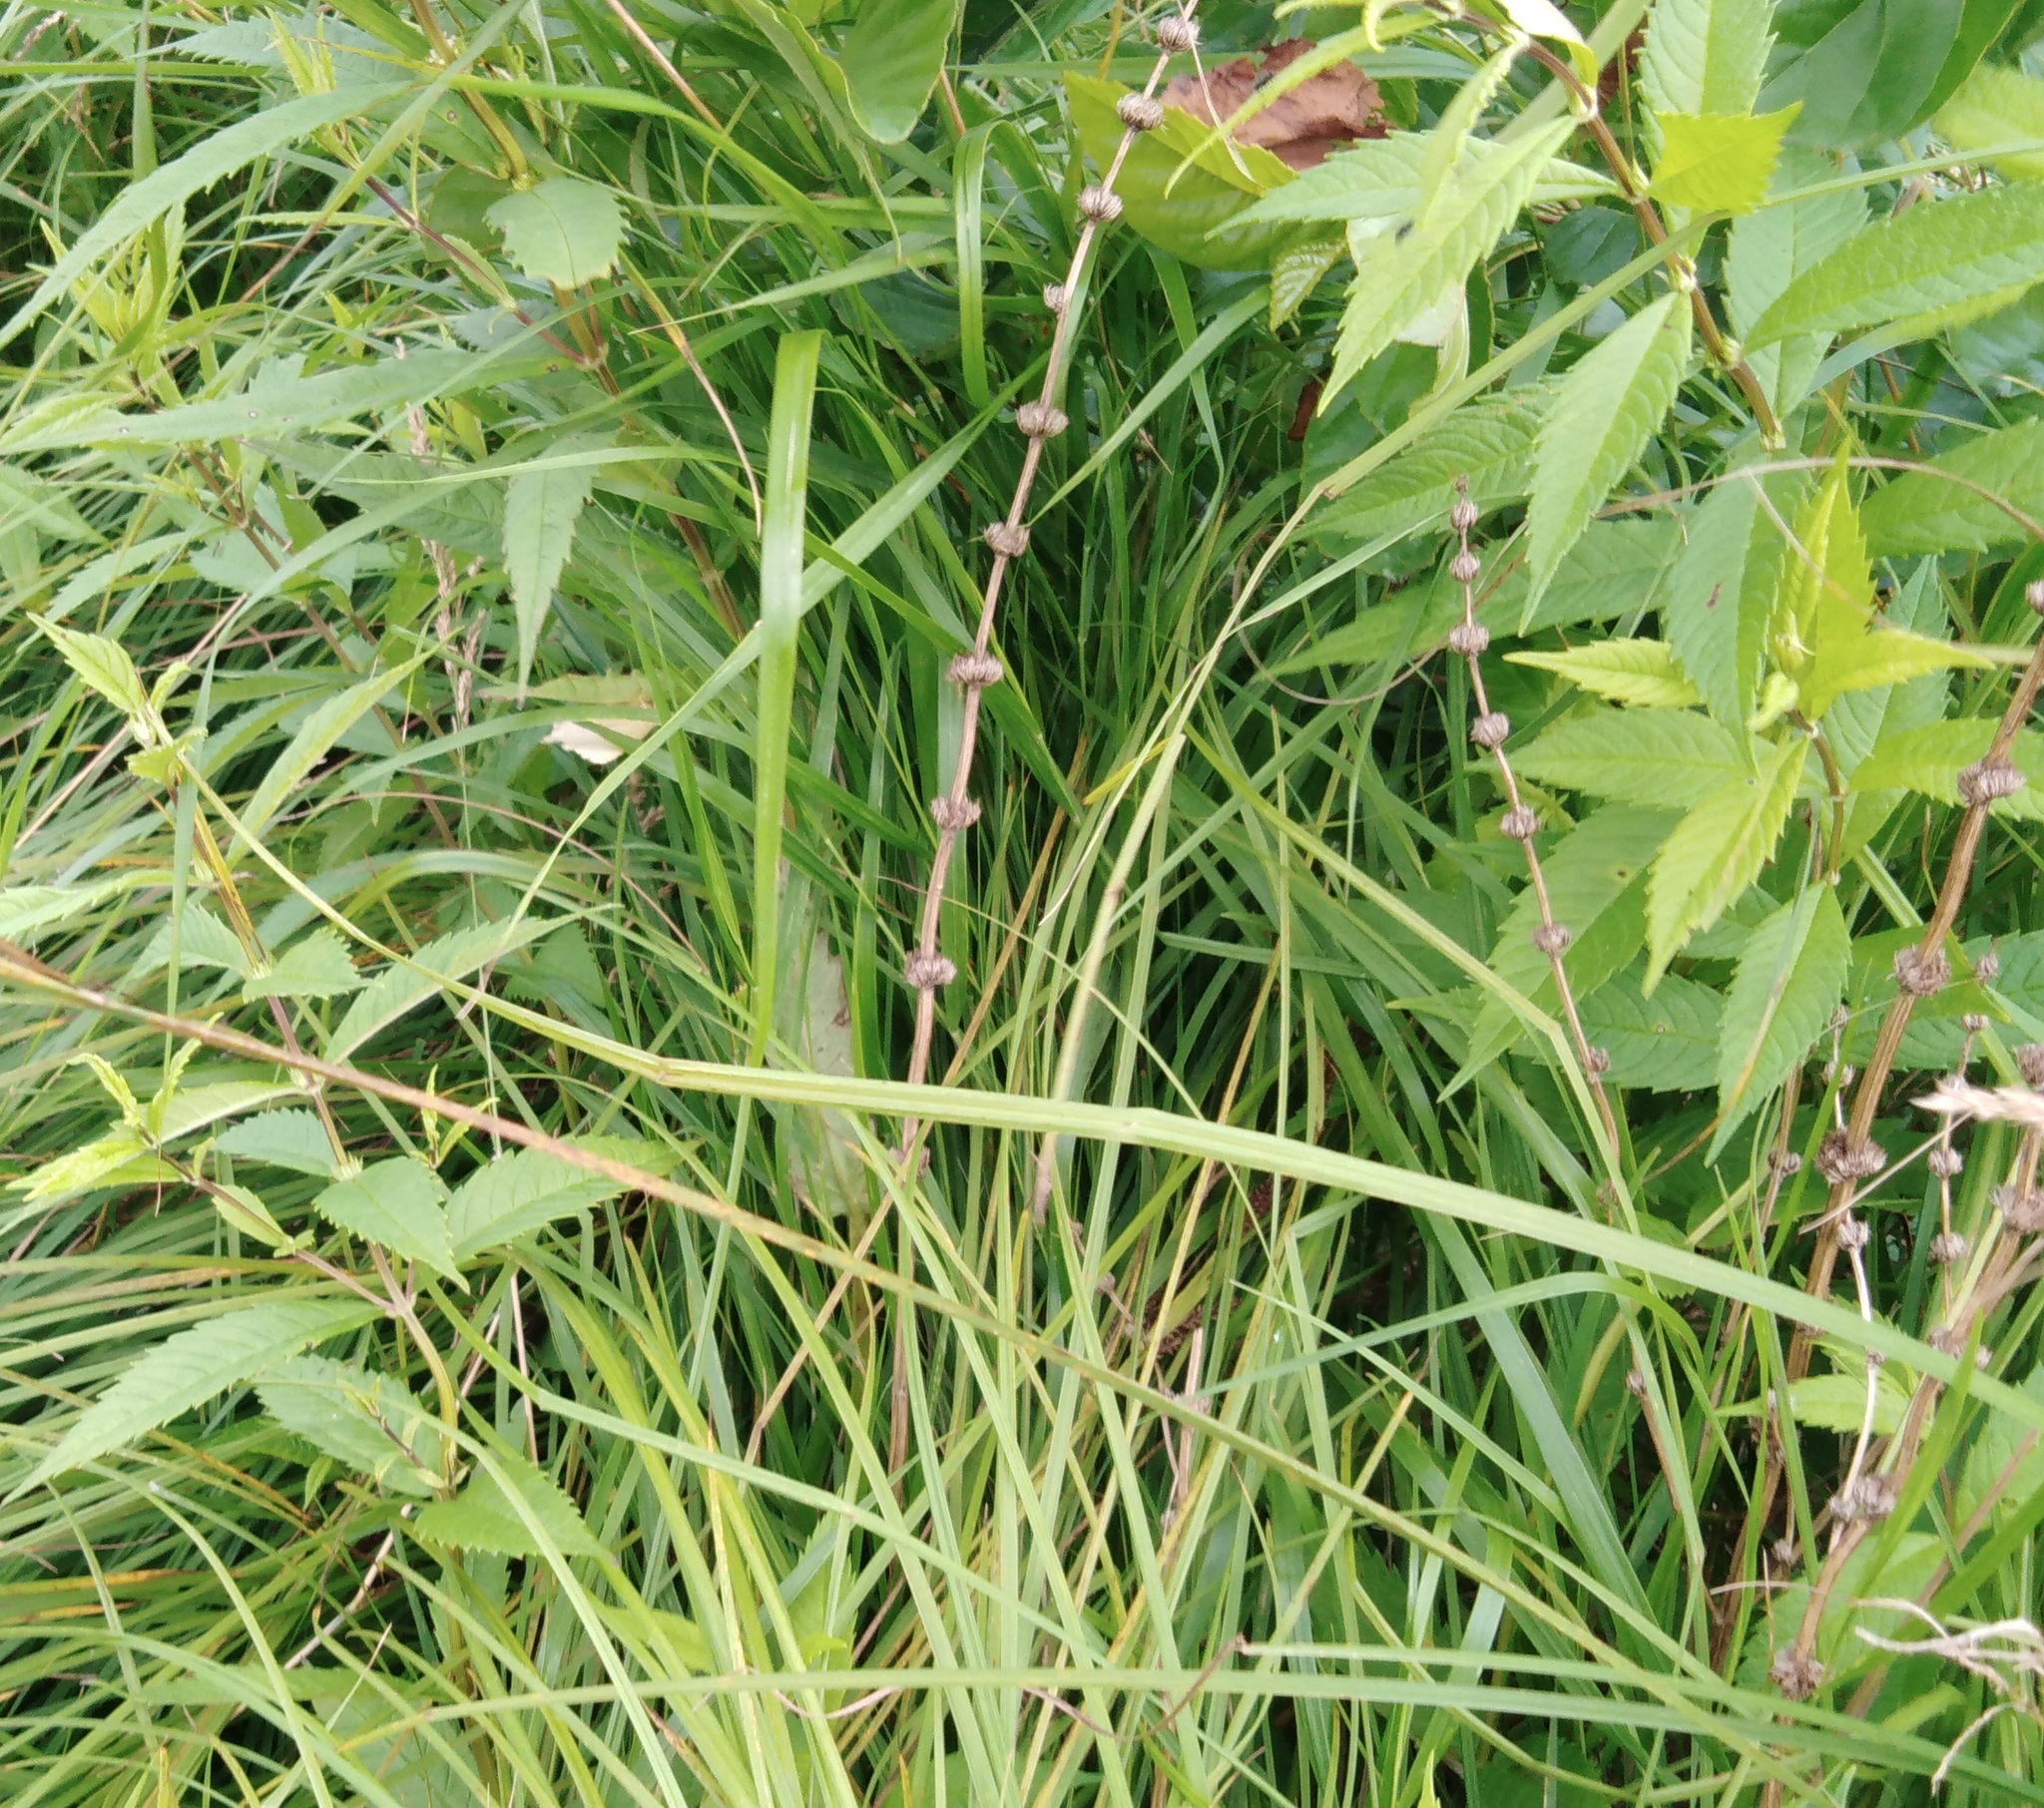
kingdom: Plantae
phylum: Tracheophyta
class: Magnoliopsida
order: Lamiales
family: Lamiaceae
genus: Lycopus
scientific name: Lycopus lucidus
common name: Shiny bugleweed
